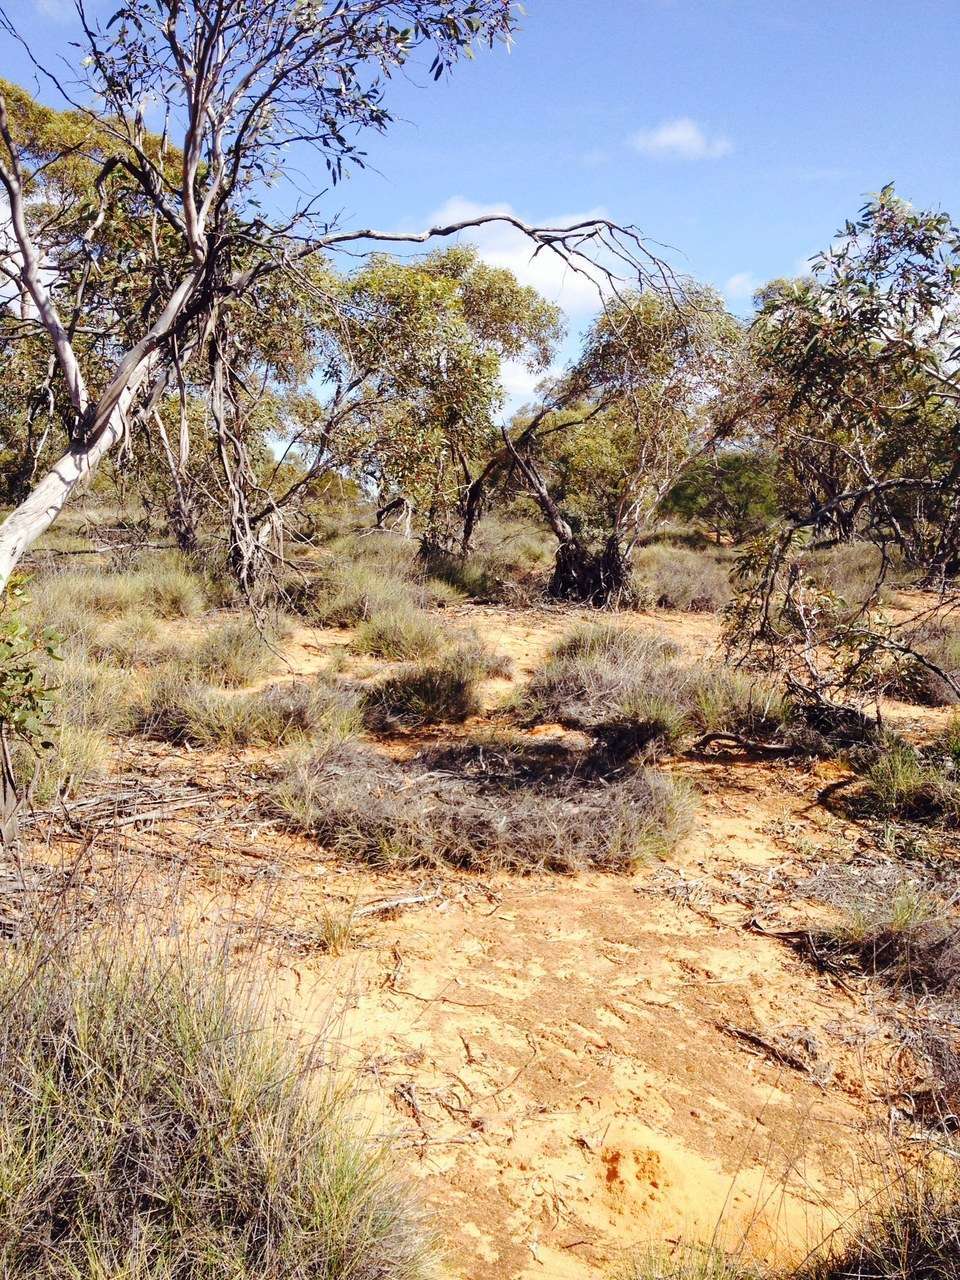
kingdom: Plantae
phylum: Tracheophyta
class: Liliopsida
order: Poales
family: Poaceae
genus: Triodia
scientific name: Triodia scariosa
